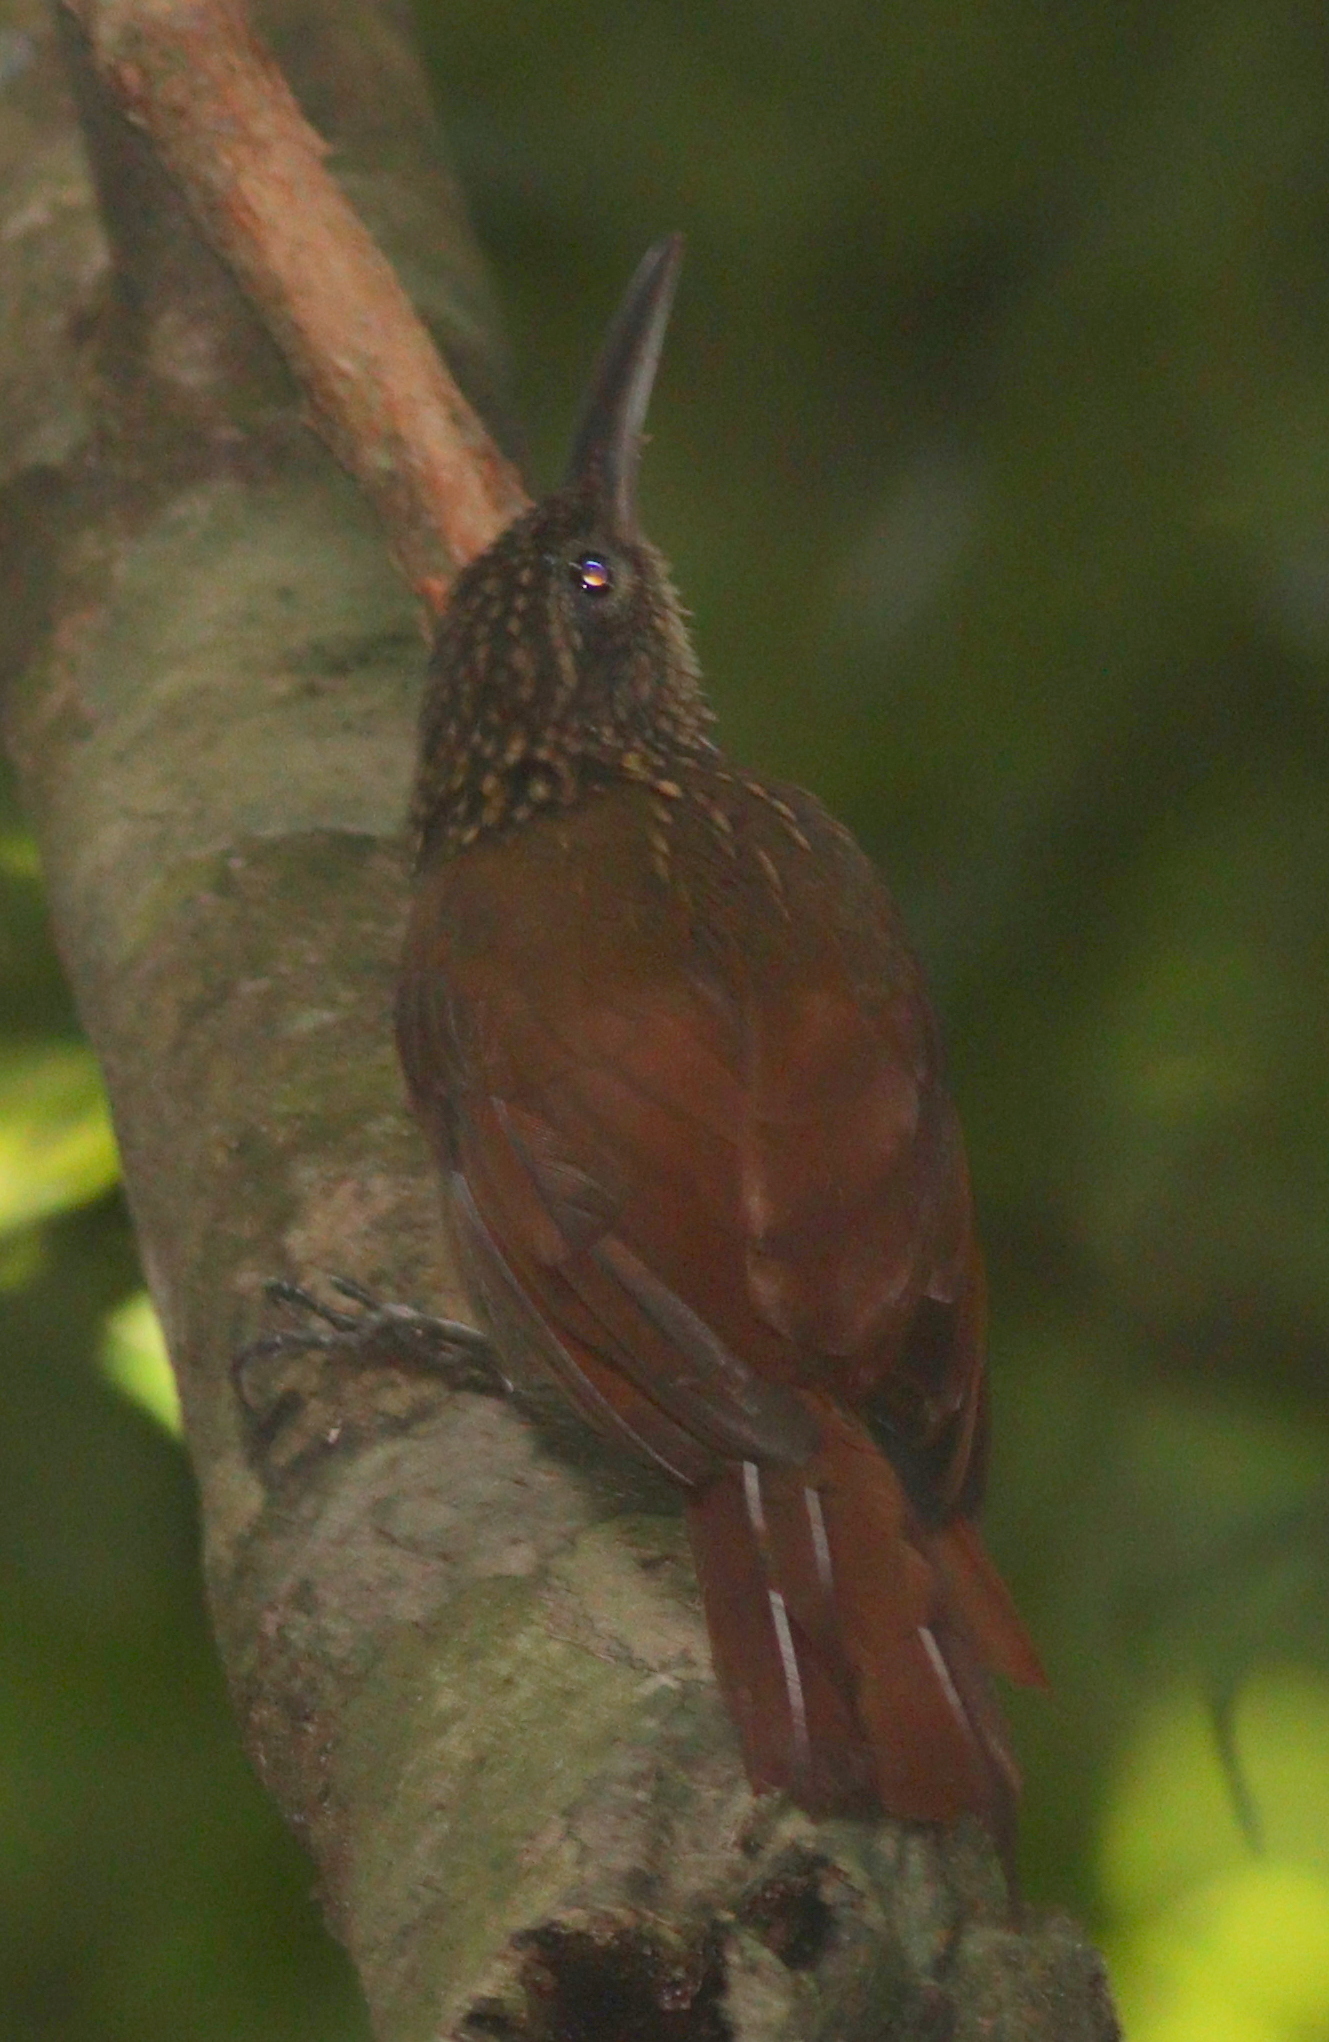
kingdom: Animalia
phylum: Chordata
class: Aves
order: Passeriformes
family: Furnariidae
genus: Xiphorhynchus
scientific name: Xiphorhynchus susurrans
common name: Cocoa woodcreeper
